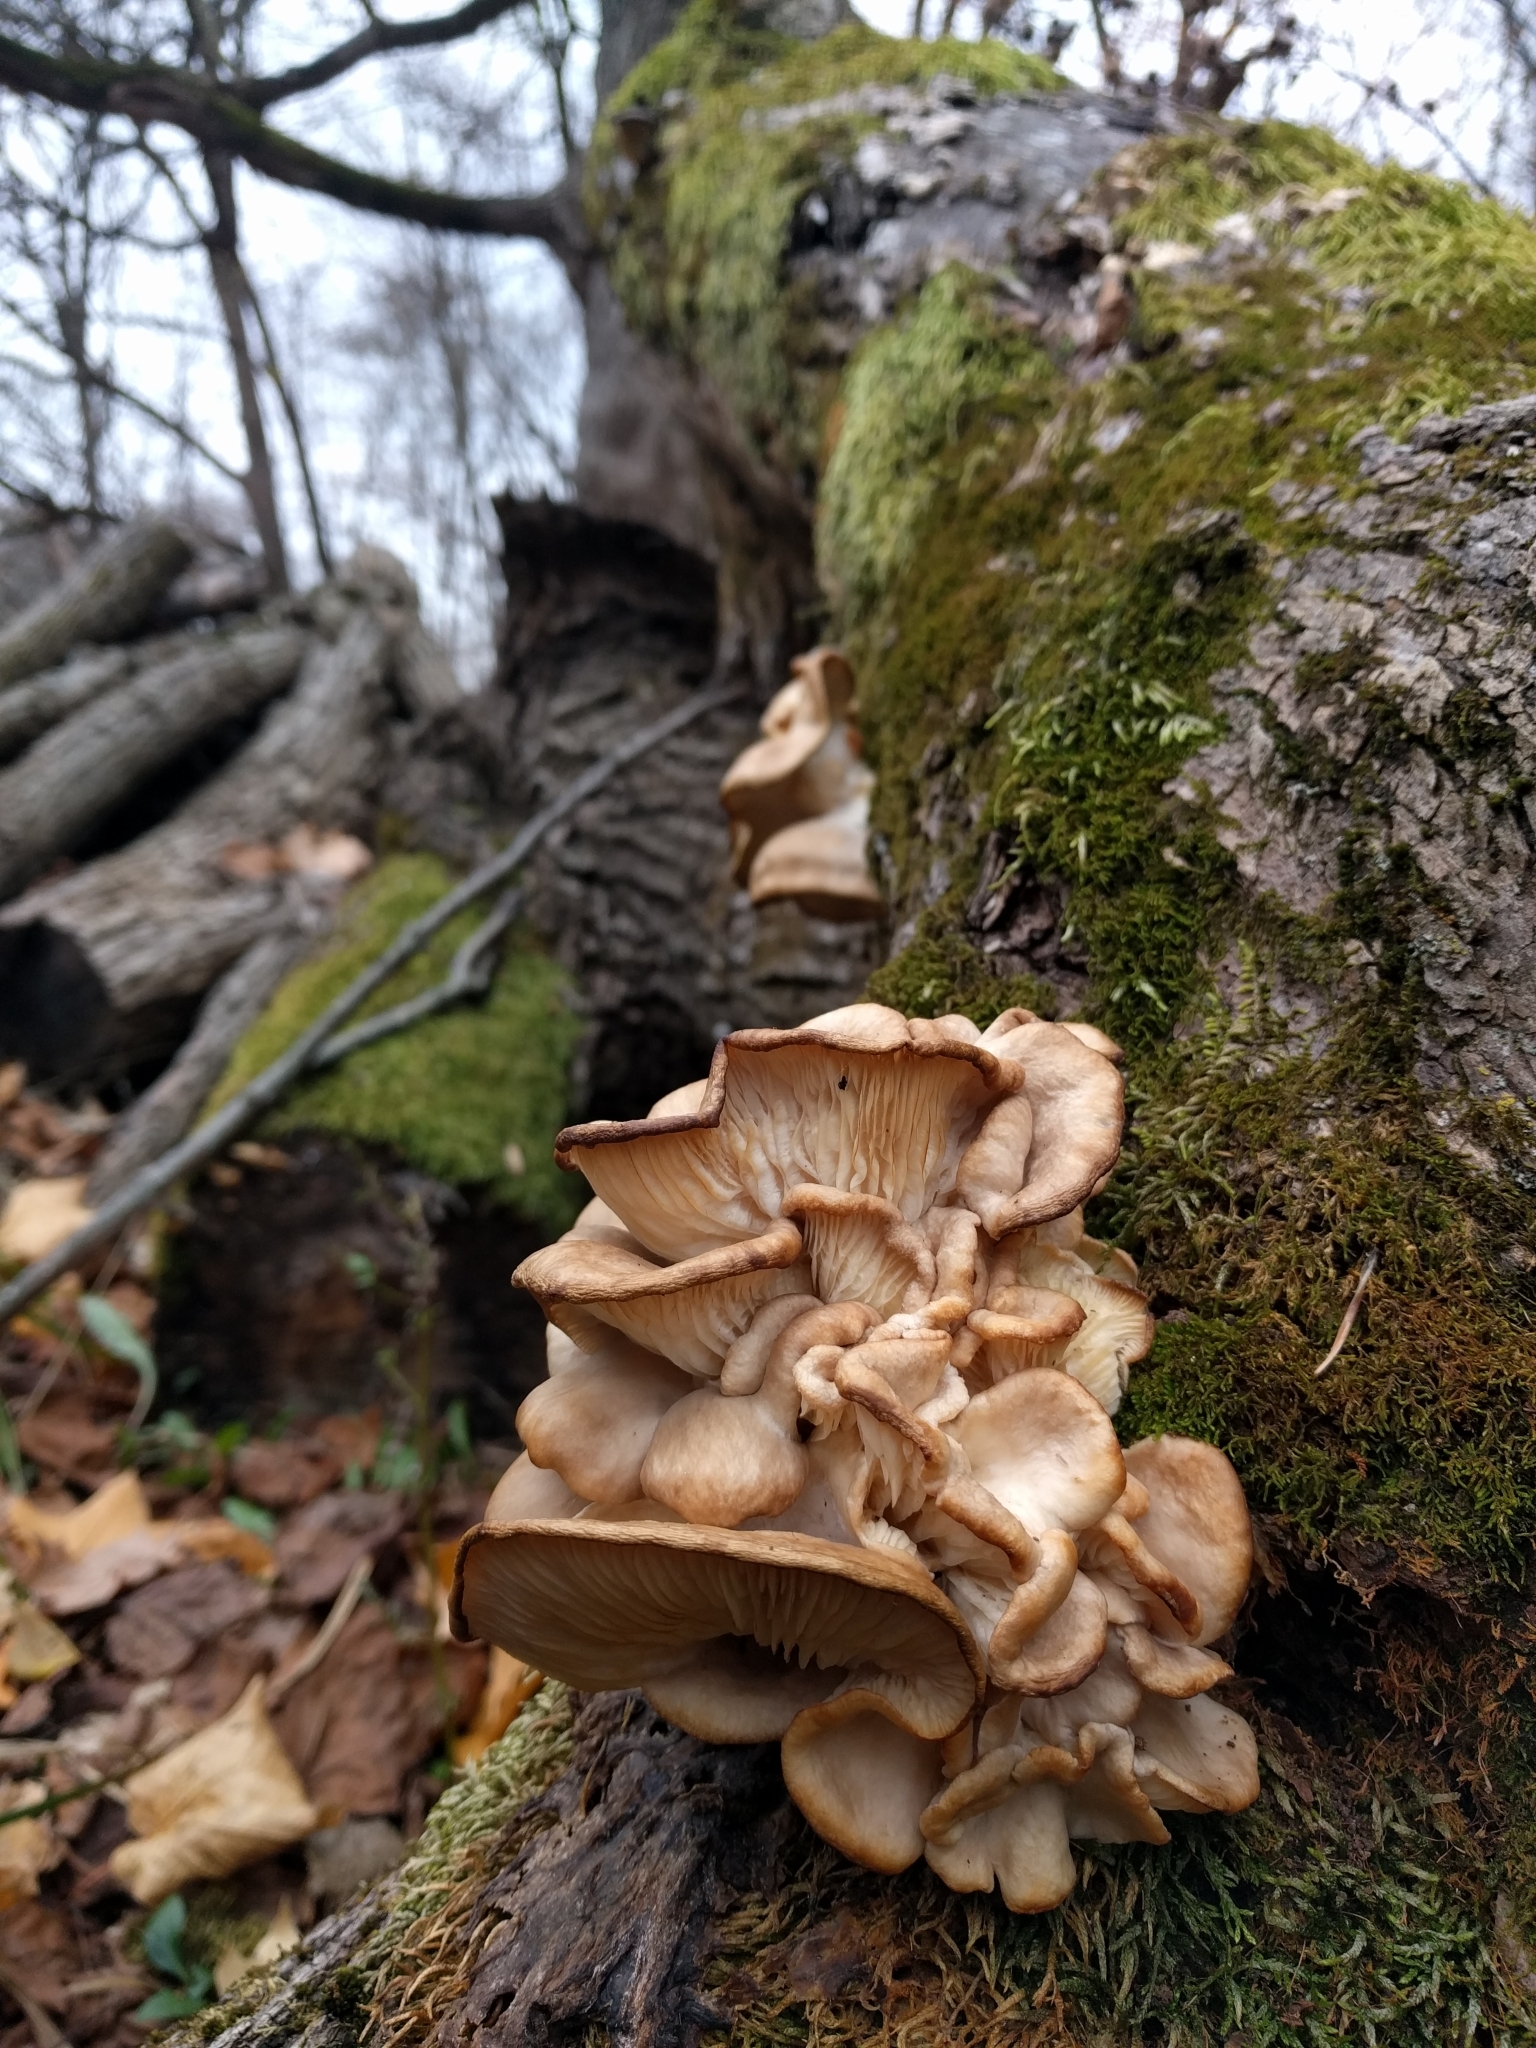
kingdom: Fungi
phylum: Basidiomycota
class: Agaricomycetes
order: Agaricales
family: Pleurotaceae
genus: Pleurotus
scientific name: Pleurotus ostreatus
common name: Oyster mushroom
